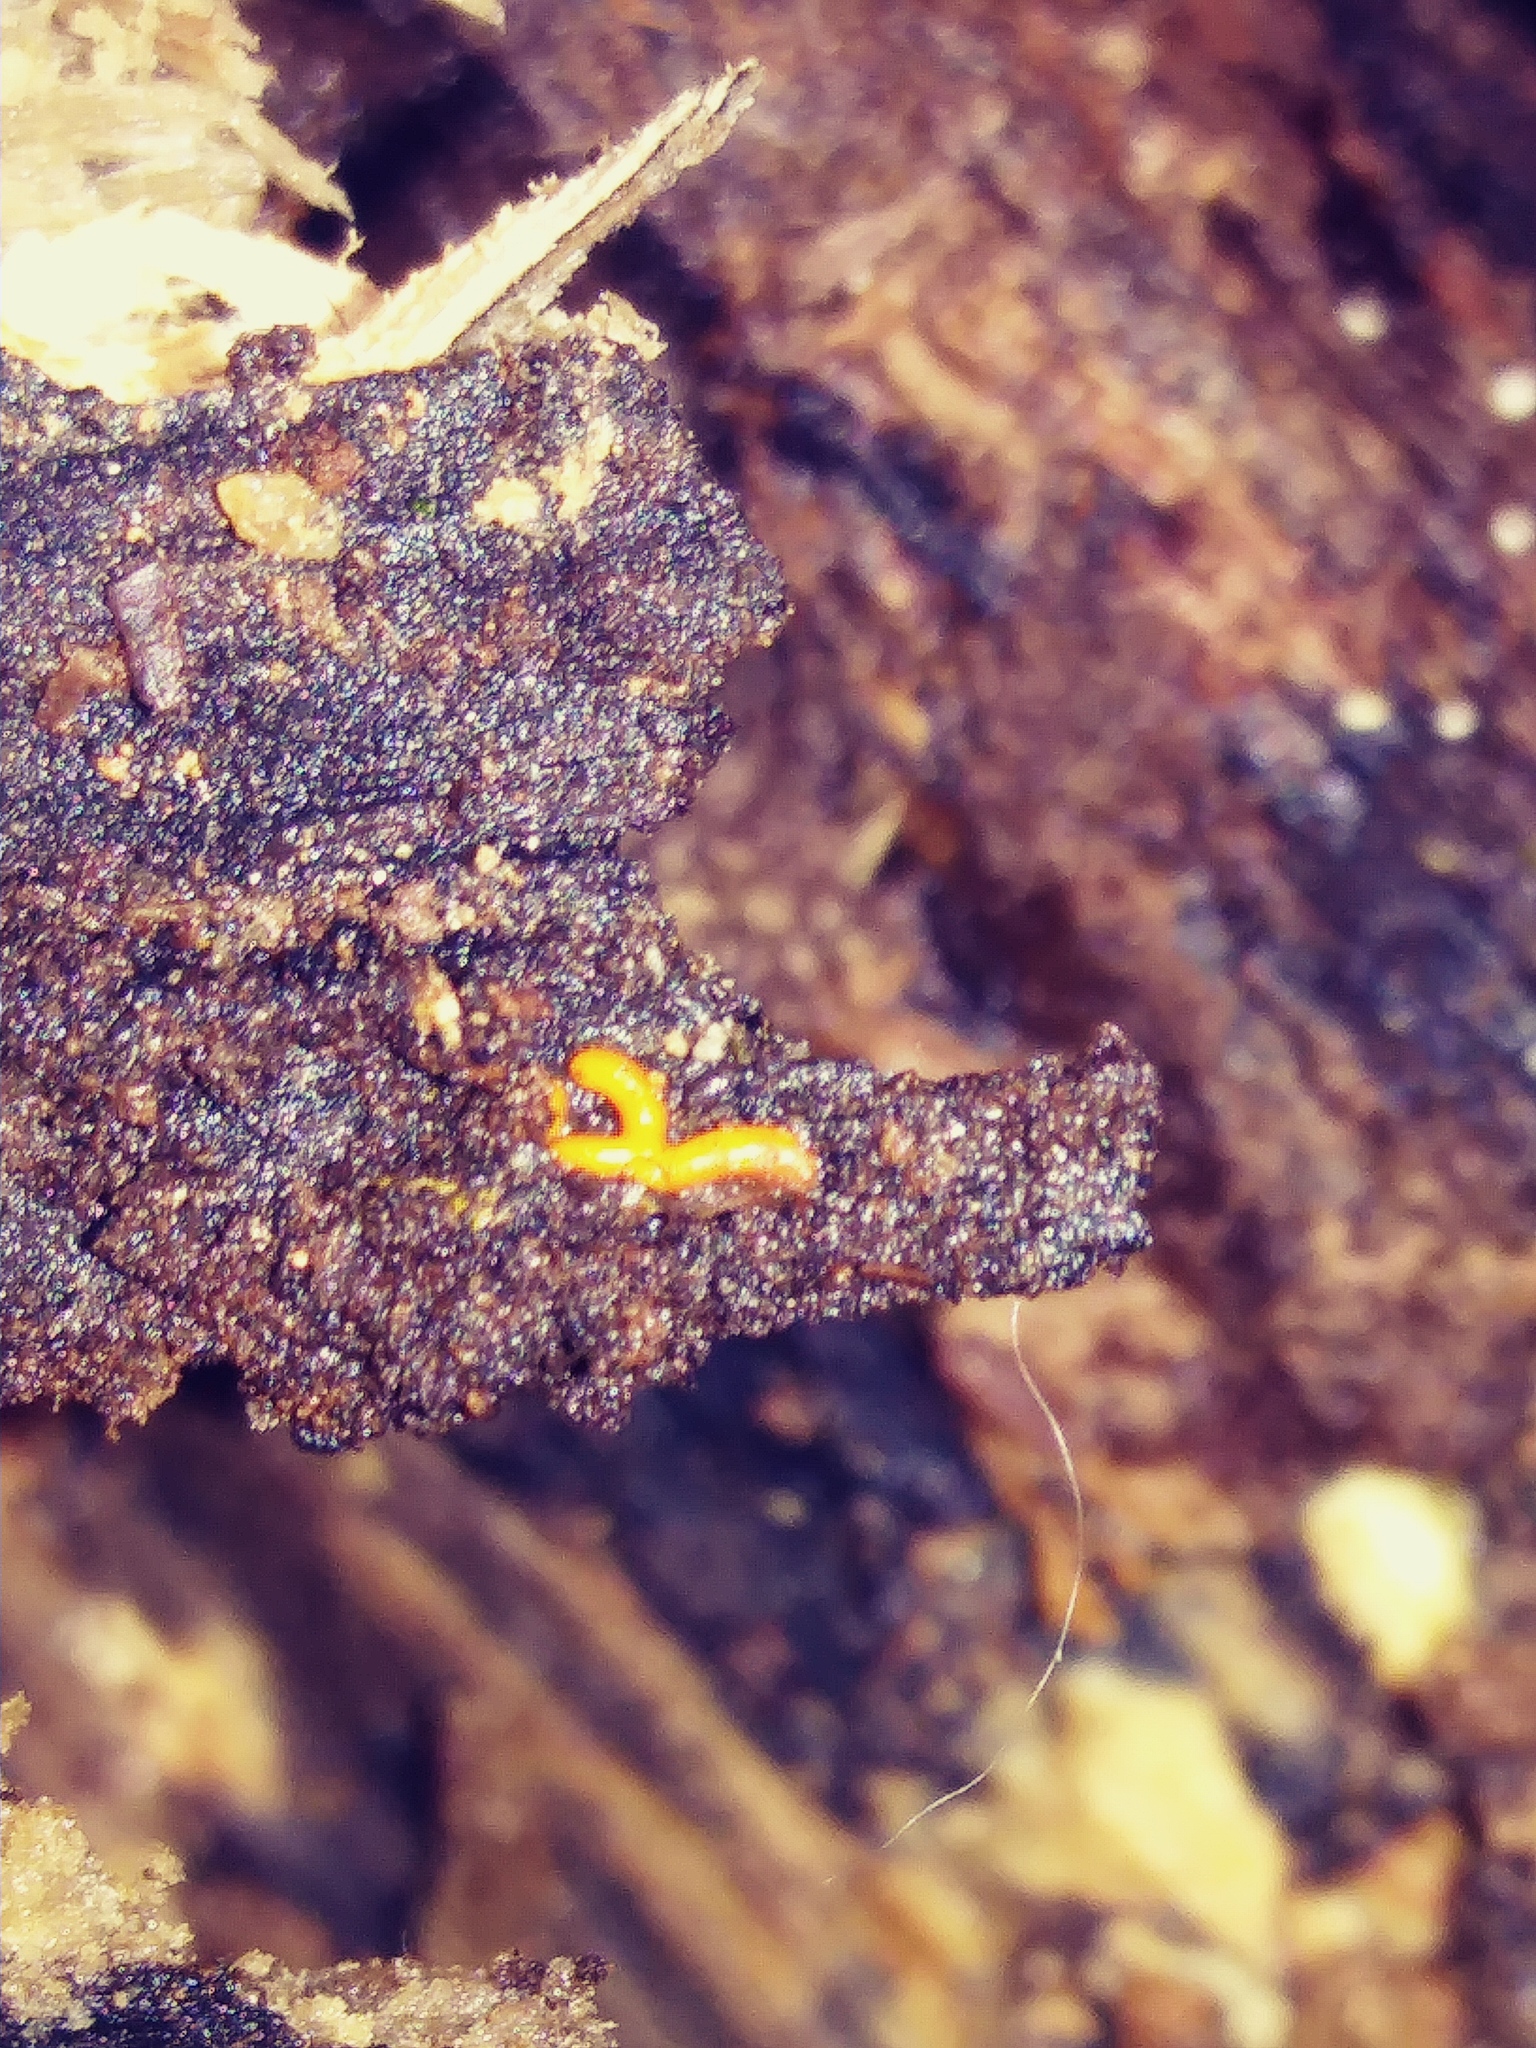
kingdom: Protozoa
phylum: Mycetozoa
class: Myxomycetes
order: Trichiales
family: Arcyriaceae
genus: Hemitrichia
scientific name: Hemitrichia serpula
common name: Pretzel slime mold
